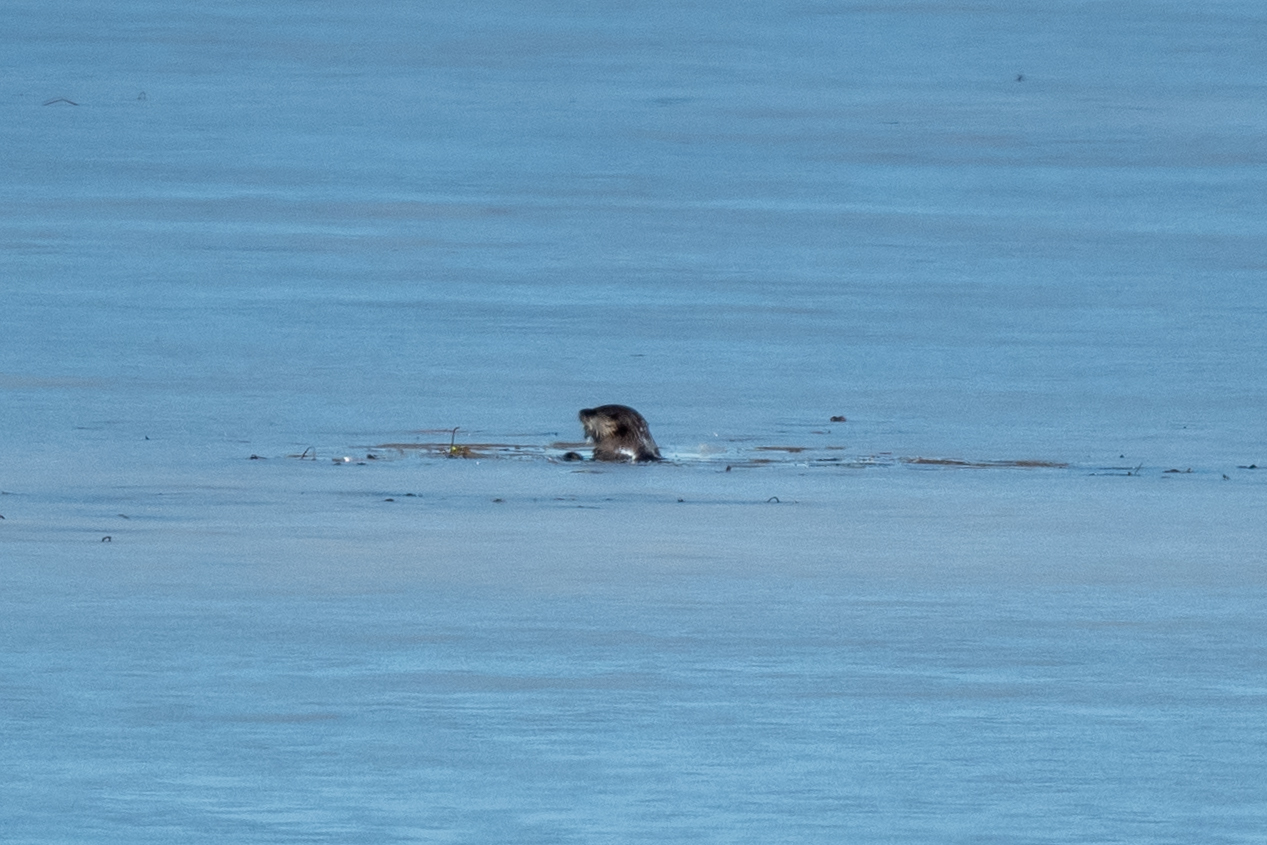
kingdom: Animalia
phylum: Chordata
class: Mammalia
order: Carnivora
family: Mustelidae
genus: Lontra
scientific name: Lontra canadensis
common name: North american river otter
